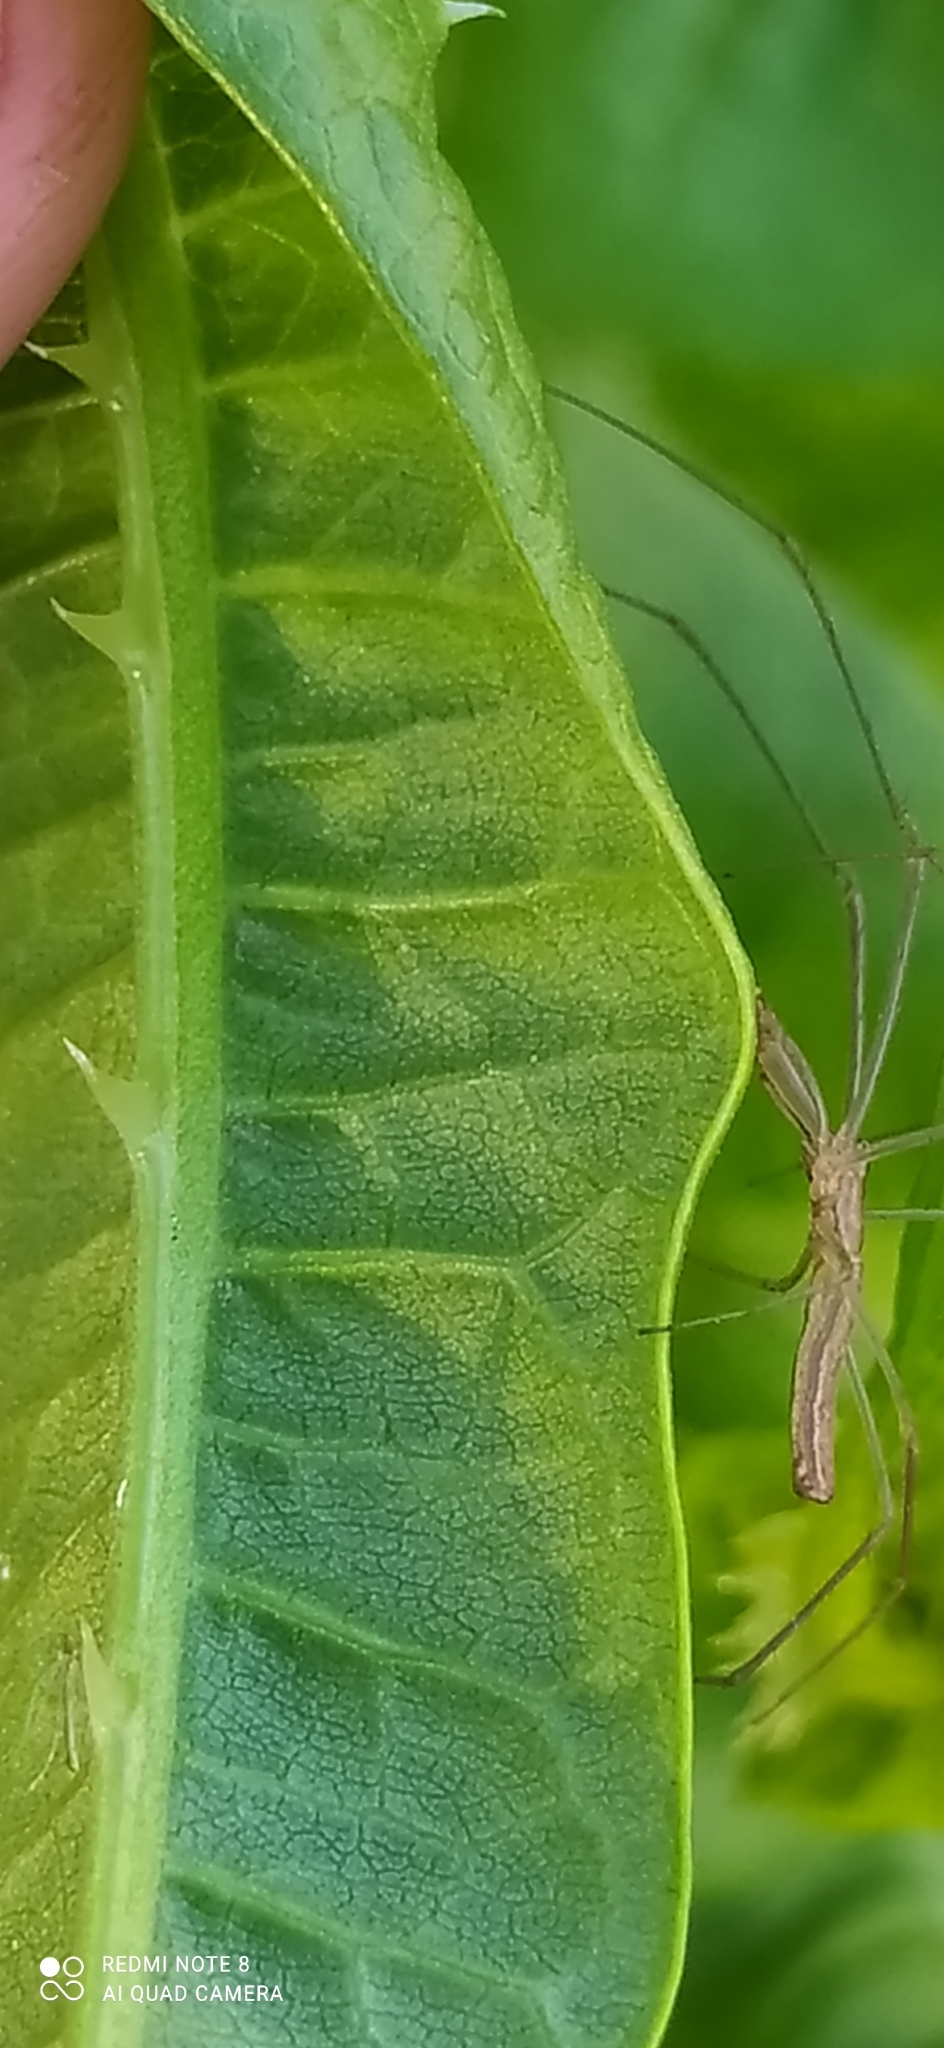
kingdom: Animalia
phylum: Arthropoda
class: Arachnida
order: Araneae
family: Tetragnathidae
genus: Tetragnatha
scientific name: Tetragnatha
